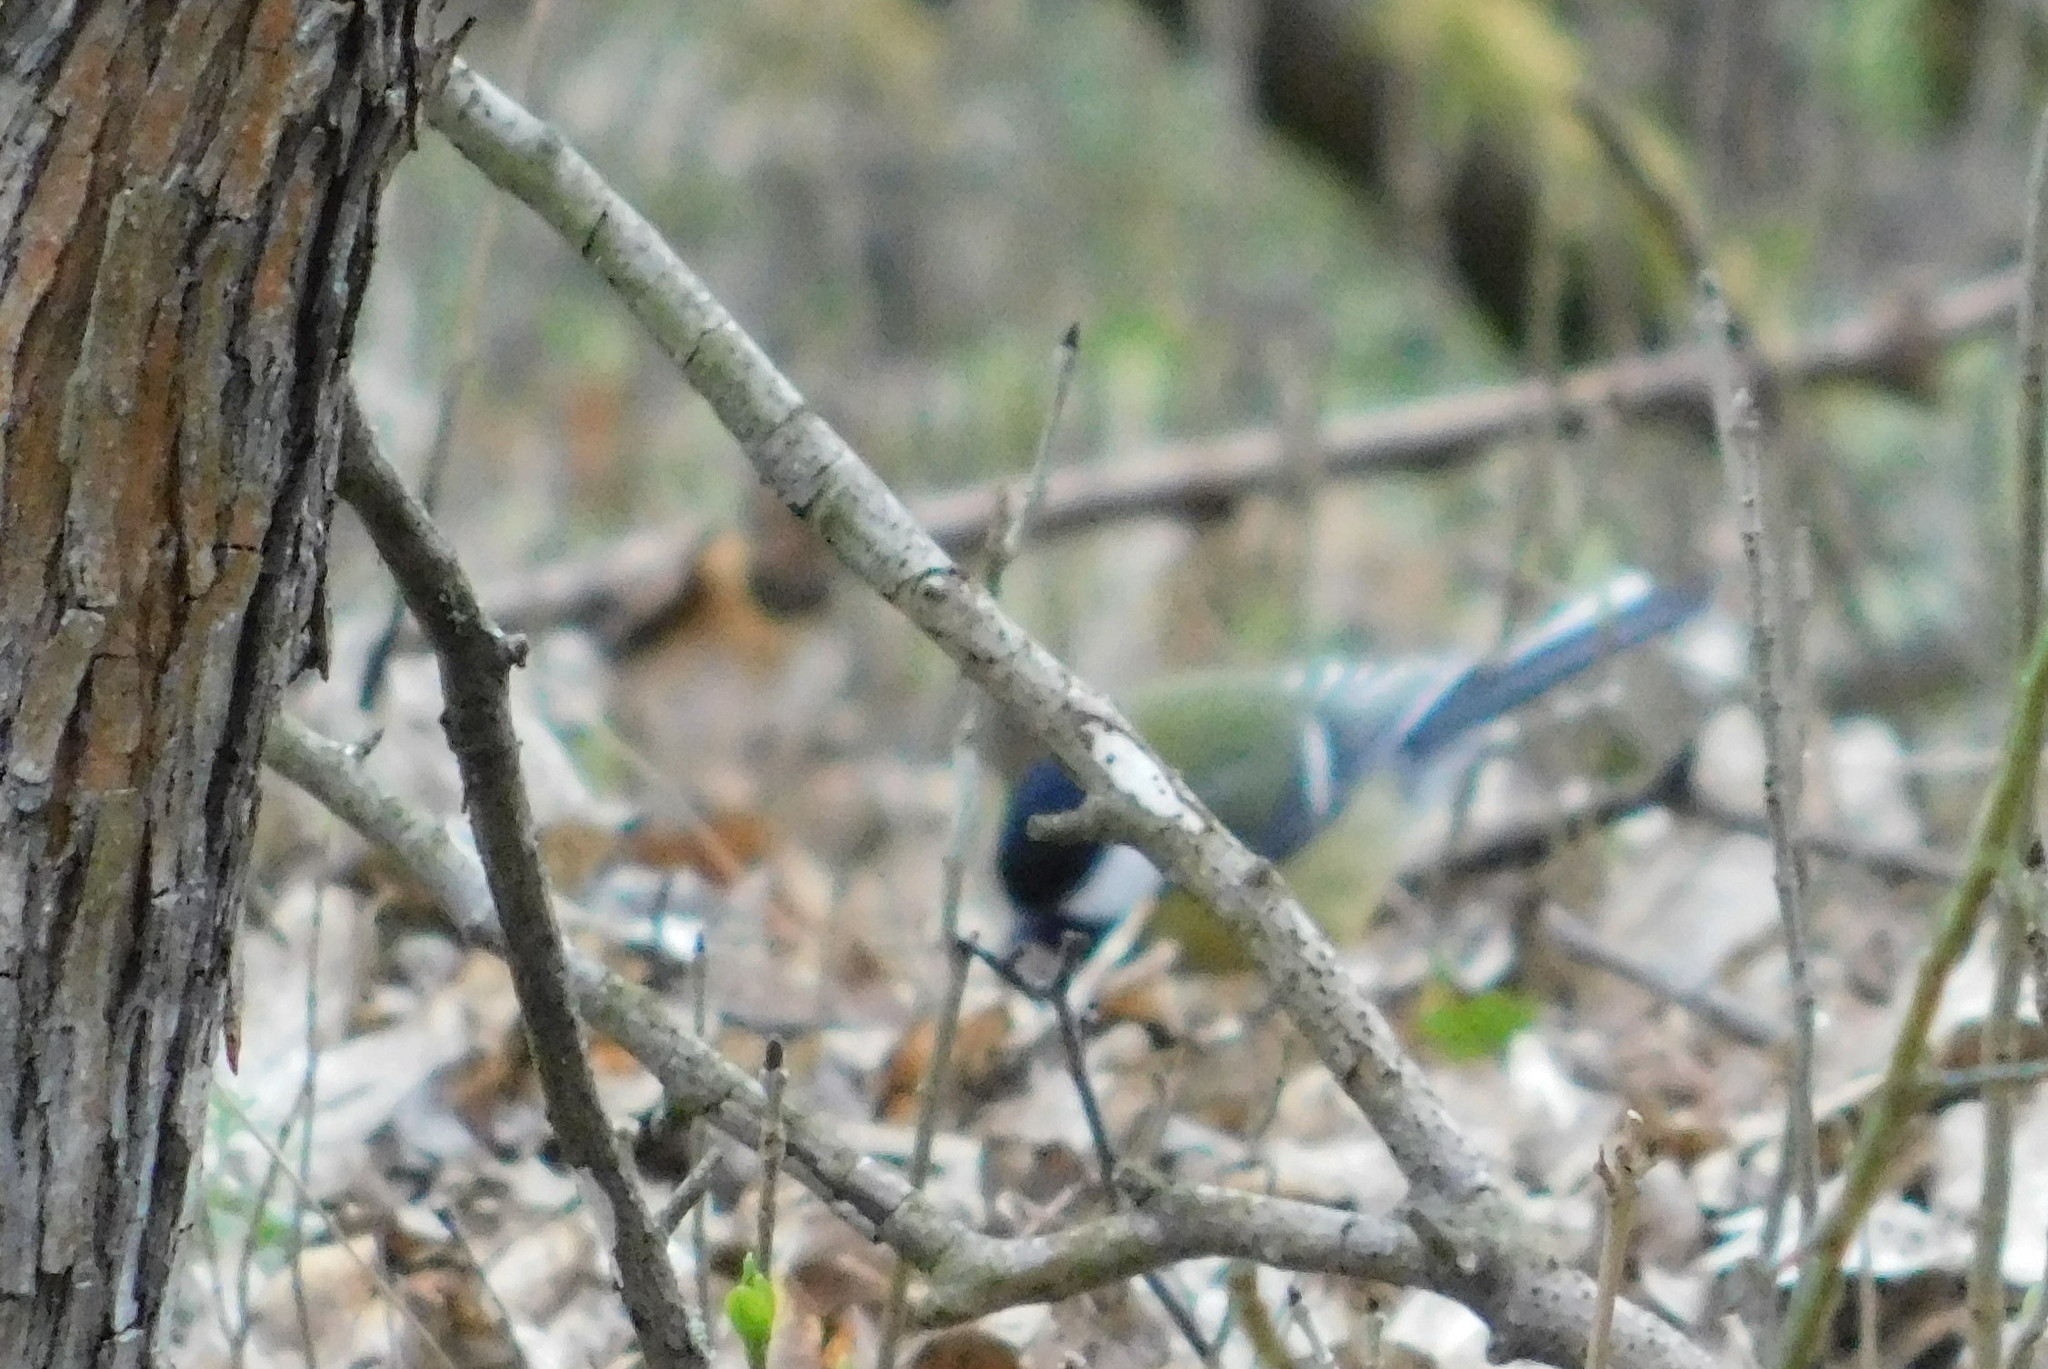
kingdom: Animalia
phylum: Chordata
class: Aves
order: Passeriformes
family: Paridae
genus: Parus
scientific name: Parus major
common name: Great tit
